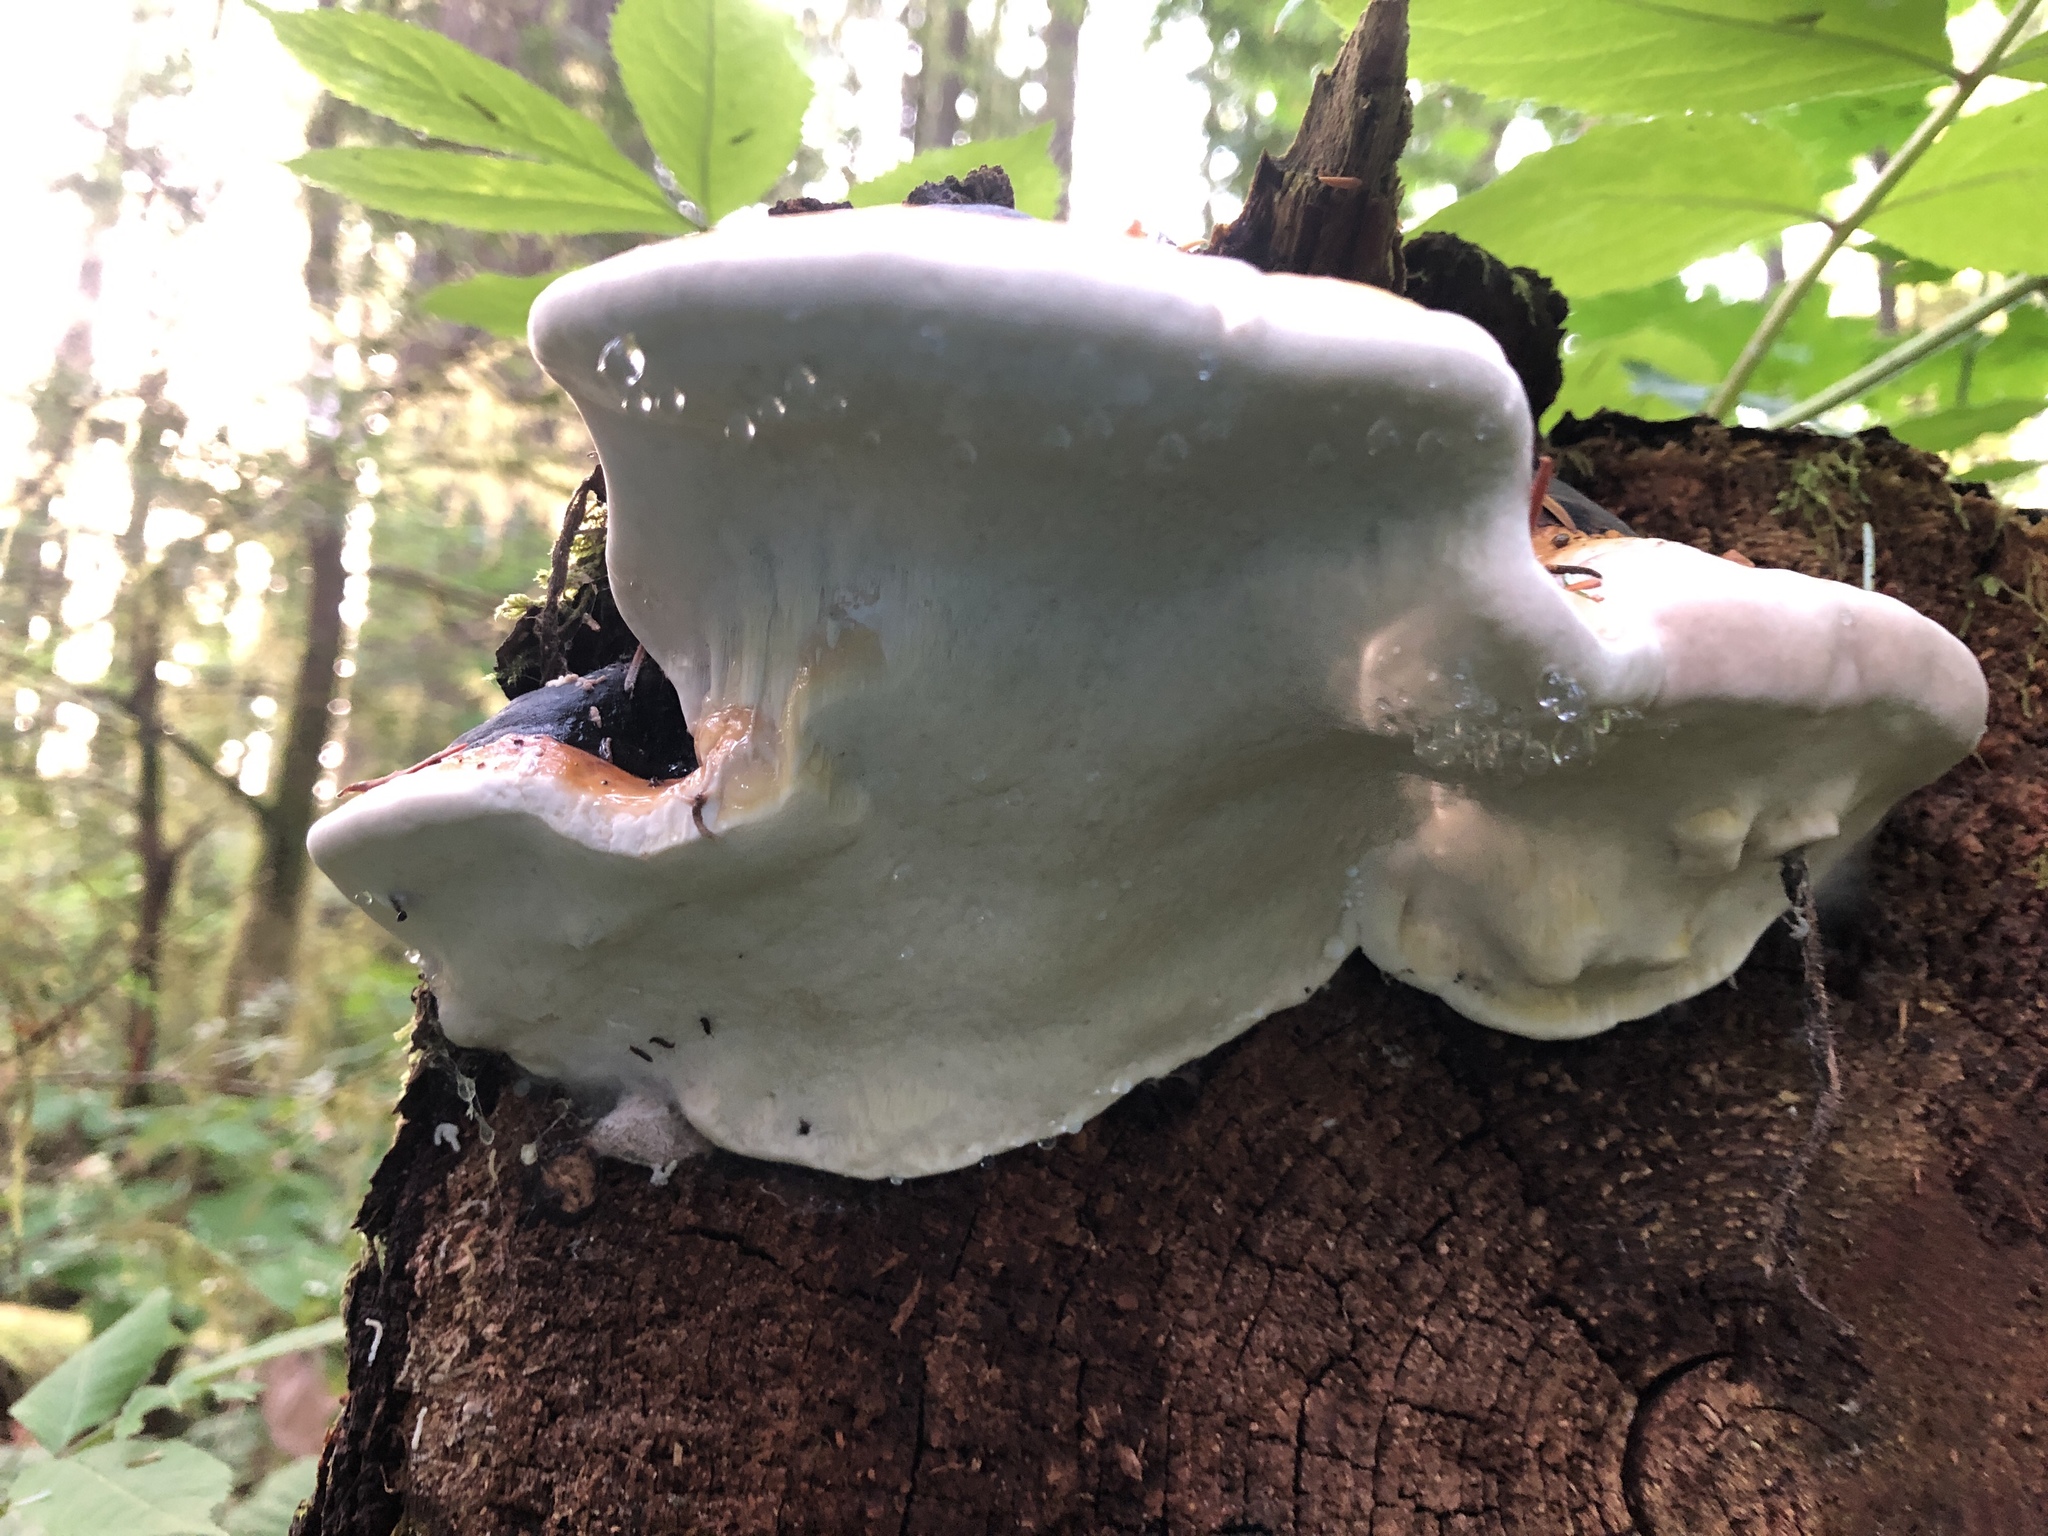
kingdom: Fungi
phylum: Basidiomycota
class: Agaricomycetes
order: Polyporales
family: Fomitopsidaceae
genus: Fomitopsis
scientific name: Fomitopsis mounceae
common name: Northern red belt
